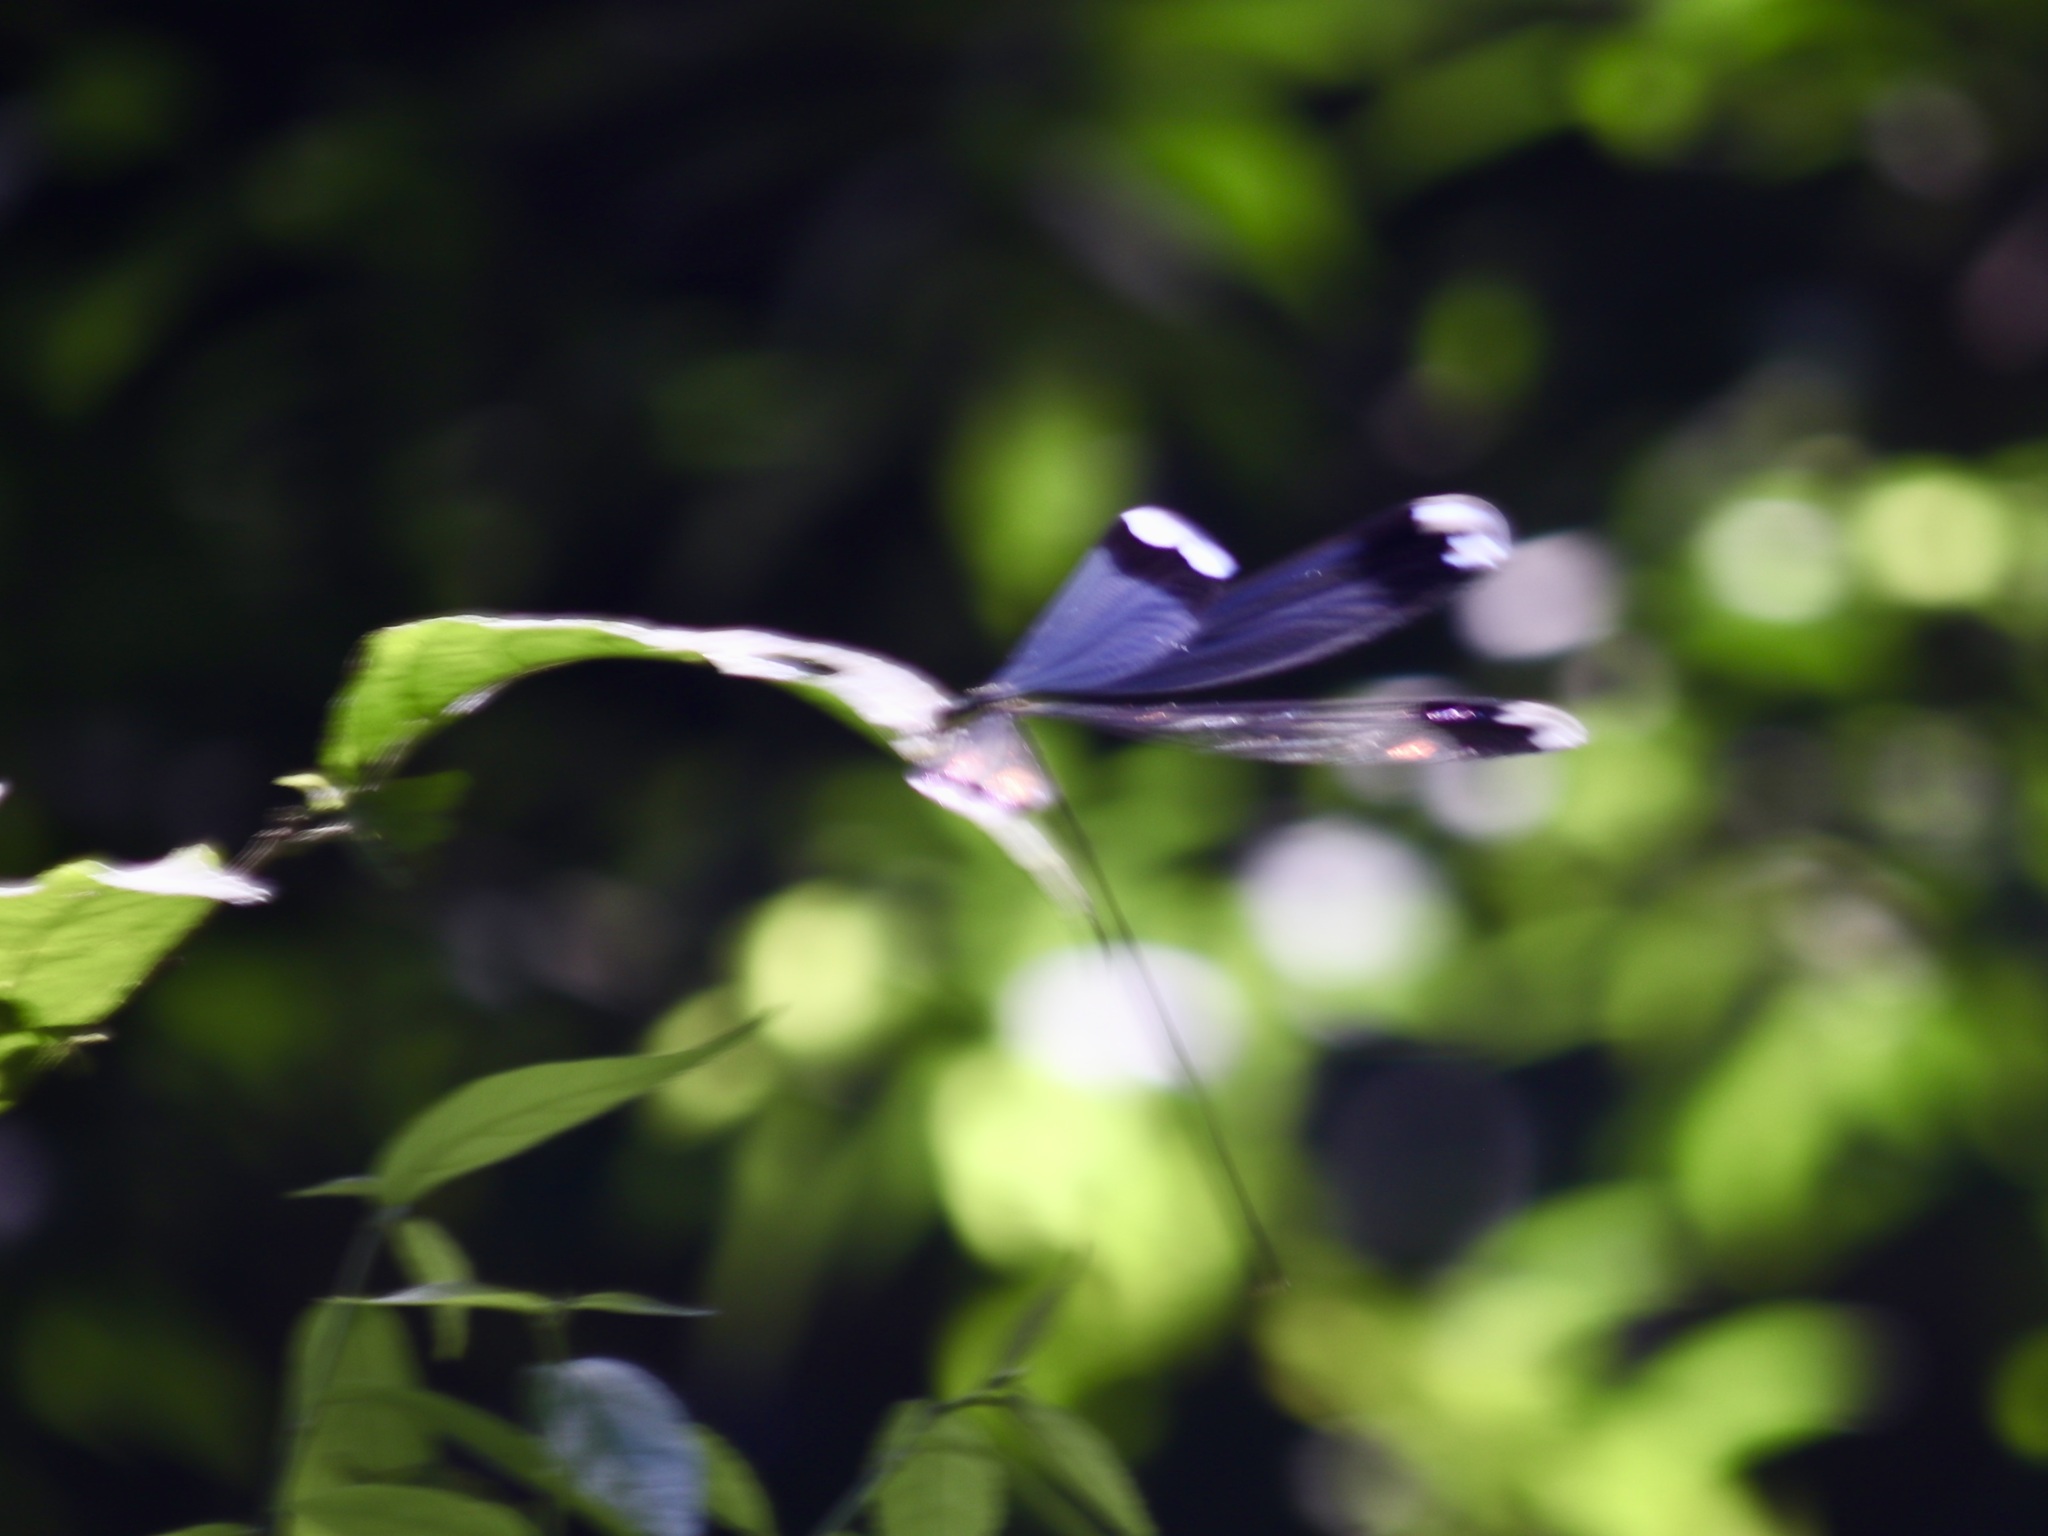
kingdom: Animalia
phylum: Arthropoda
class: Insecta
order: Odonata
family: Coenagrionidae
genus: Megaloprepus
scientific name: Megaloprepus diaboli
